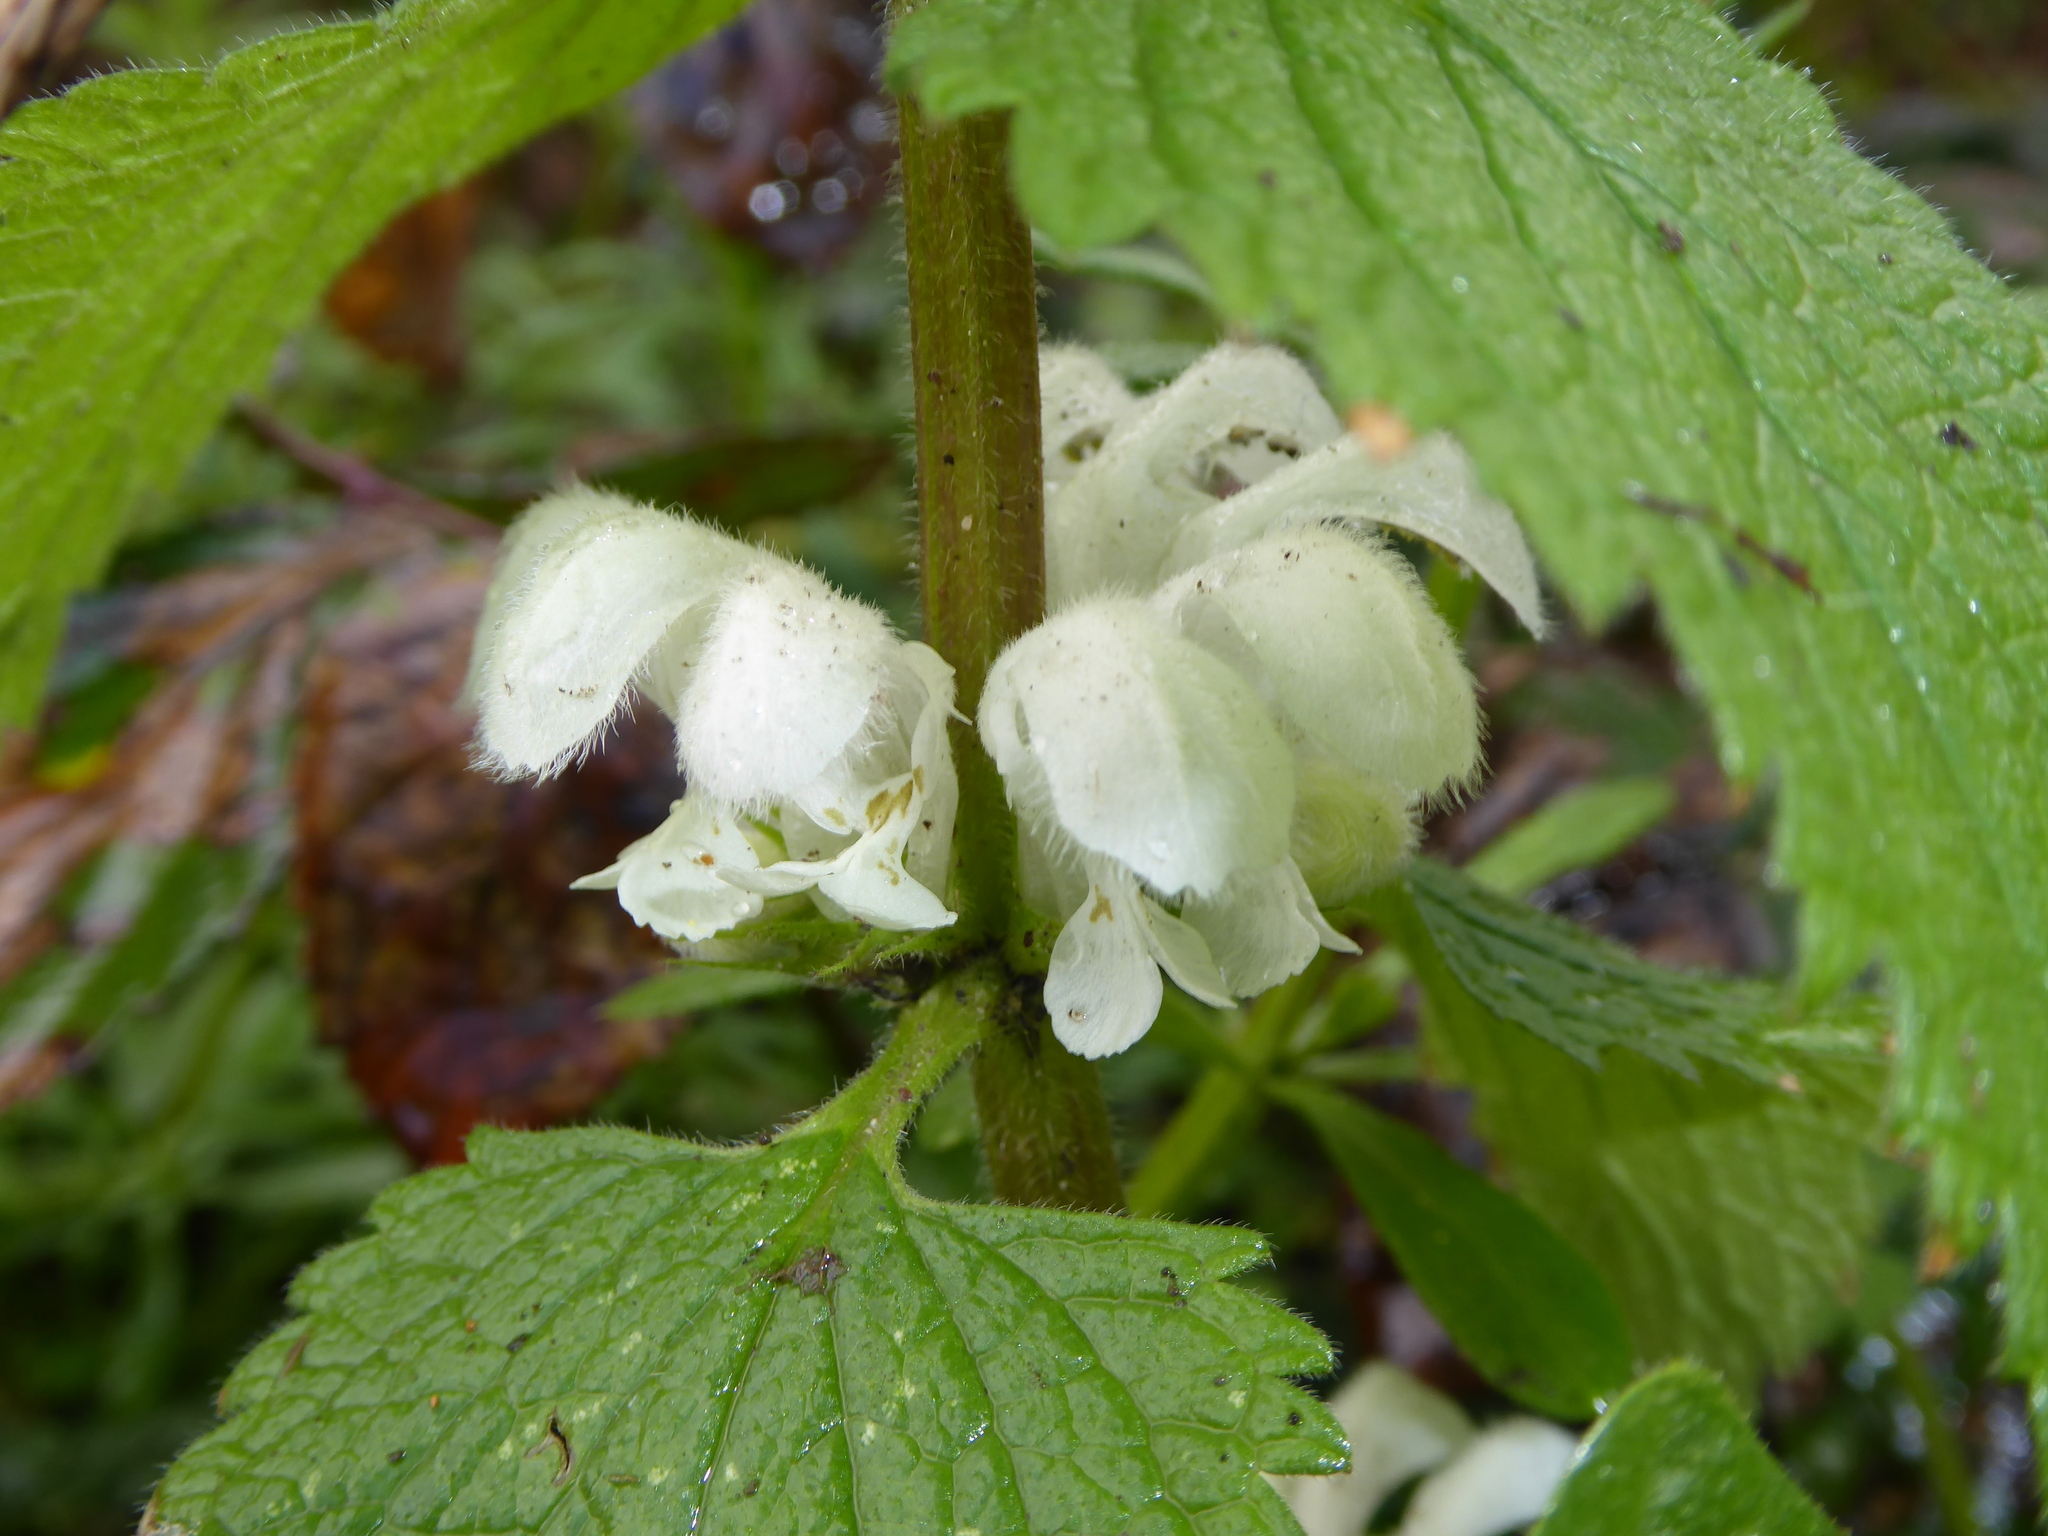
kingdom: Plantae
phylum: Tracheophyta
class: Magnoliopsida
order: Lamiales
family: Lamiaceae
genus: Lamium
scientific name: Lamium album
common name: White dead-nettle
